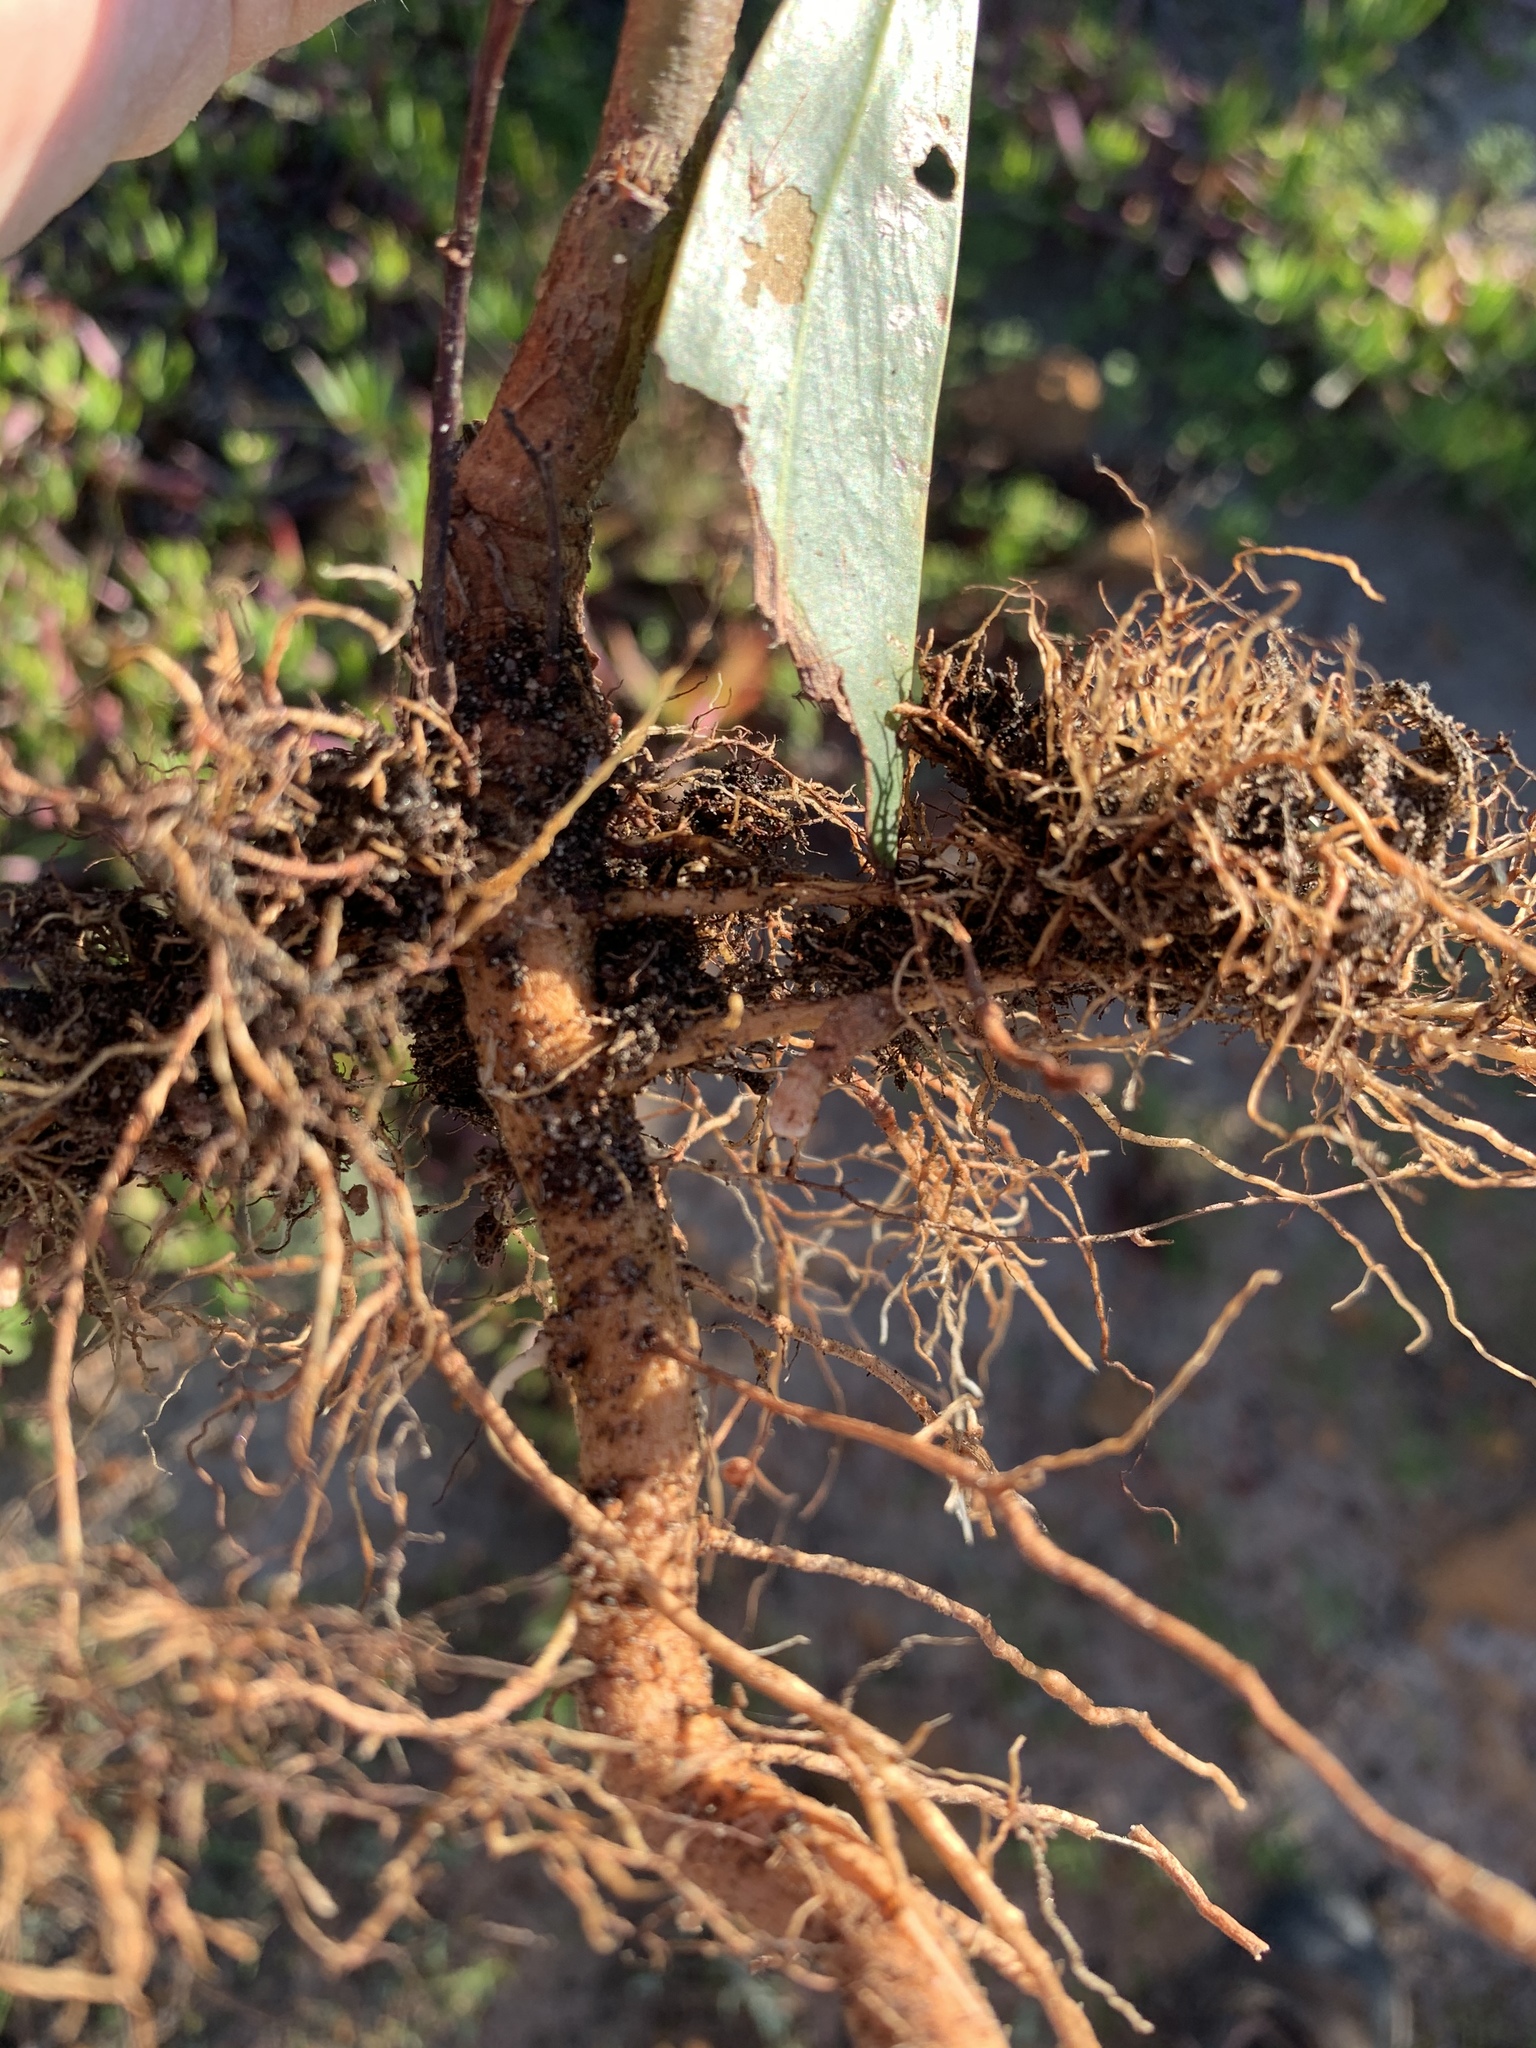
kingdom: Plantae
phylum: Tracheophyta
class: Magnoliopsida
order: Fabales
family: Fabaceae
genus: Acacia
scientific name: Acacia saligna
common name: Orange wattle
